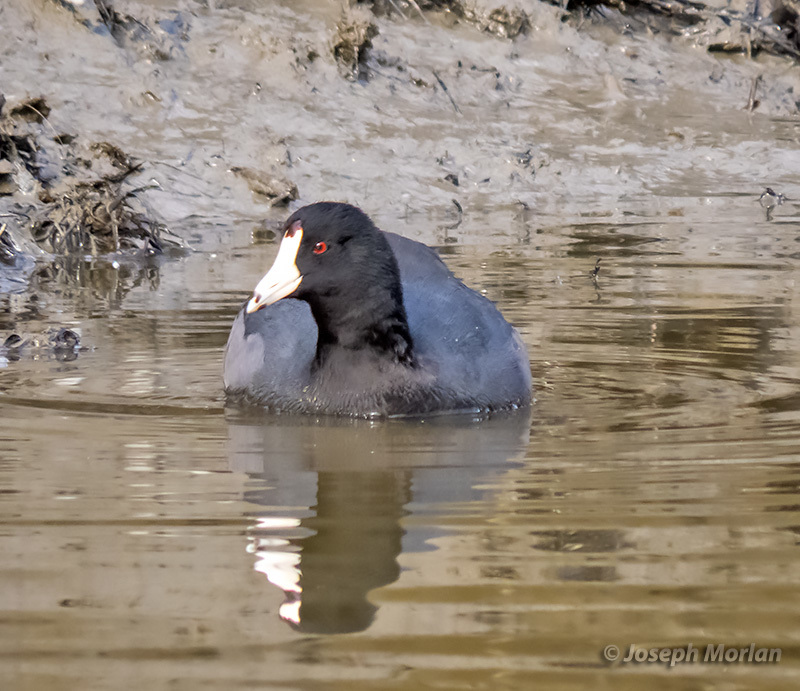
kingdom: Animalia
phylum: Chordata
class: Aves
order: Gruiformes
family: Rallidae
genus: Fulica
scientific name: Fulica americana
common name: American coot
